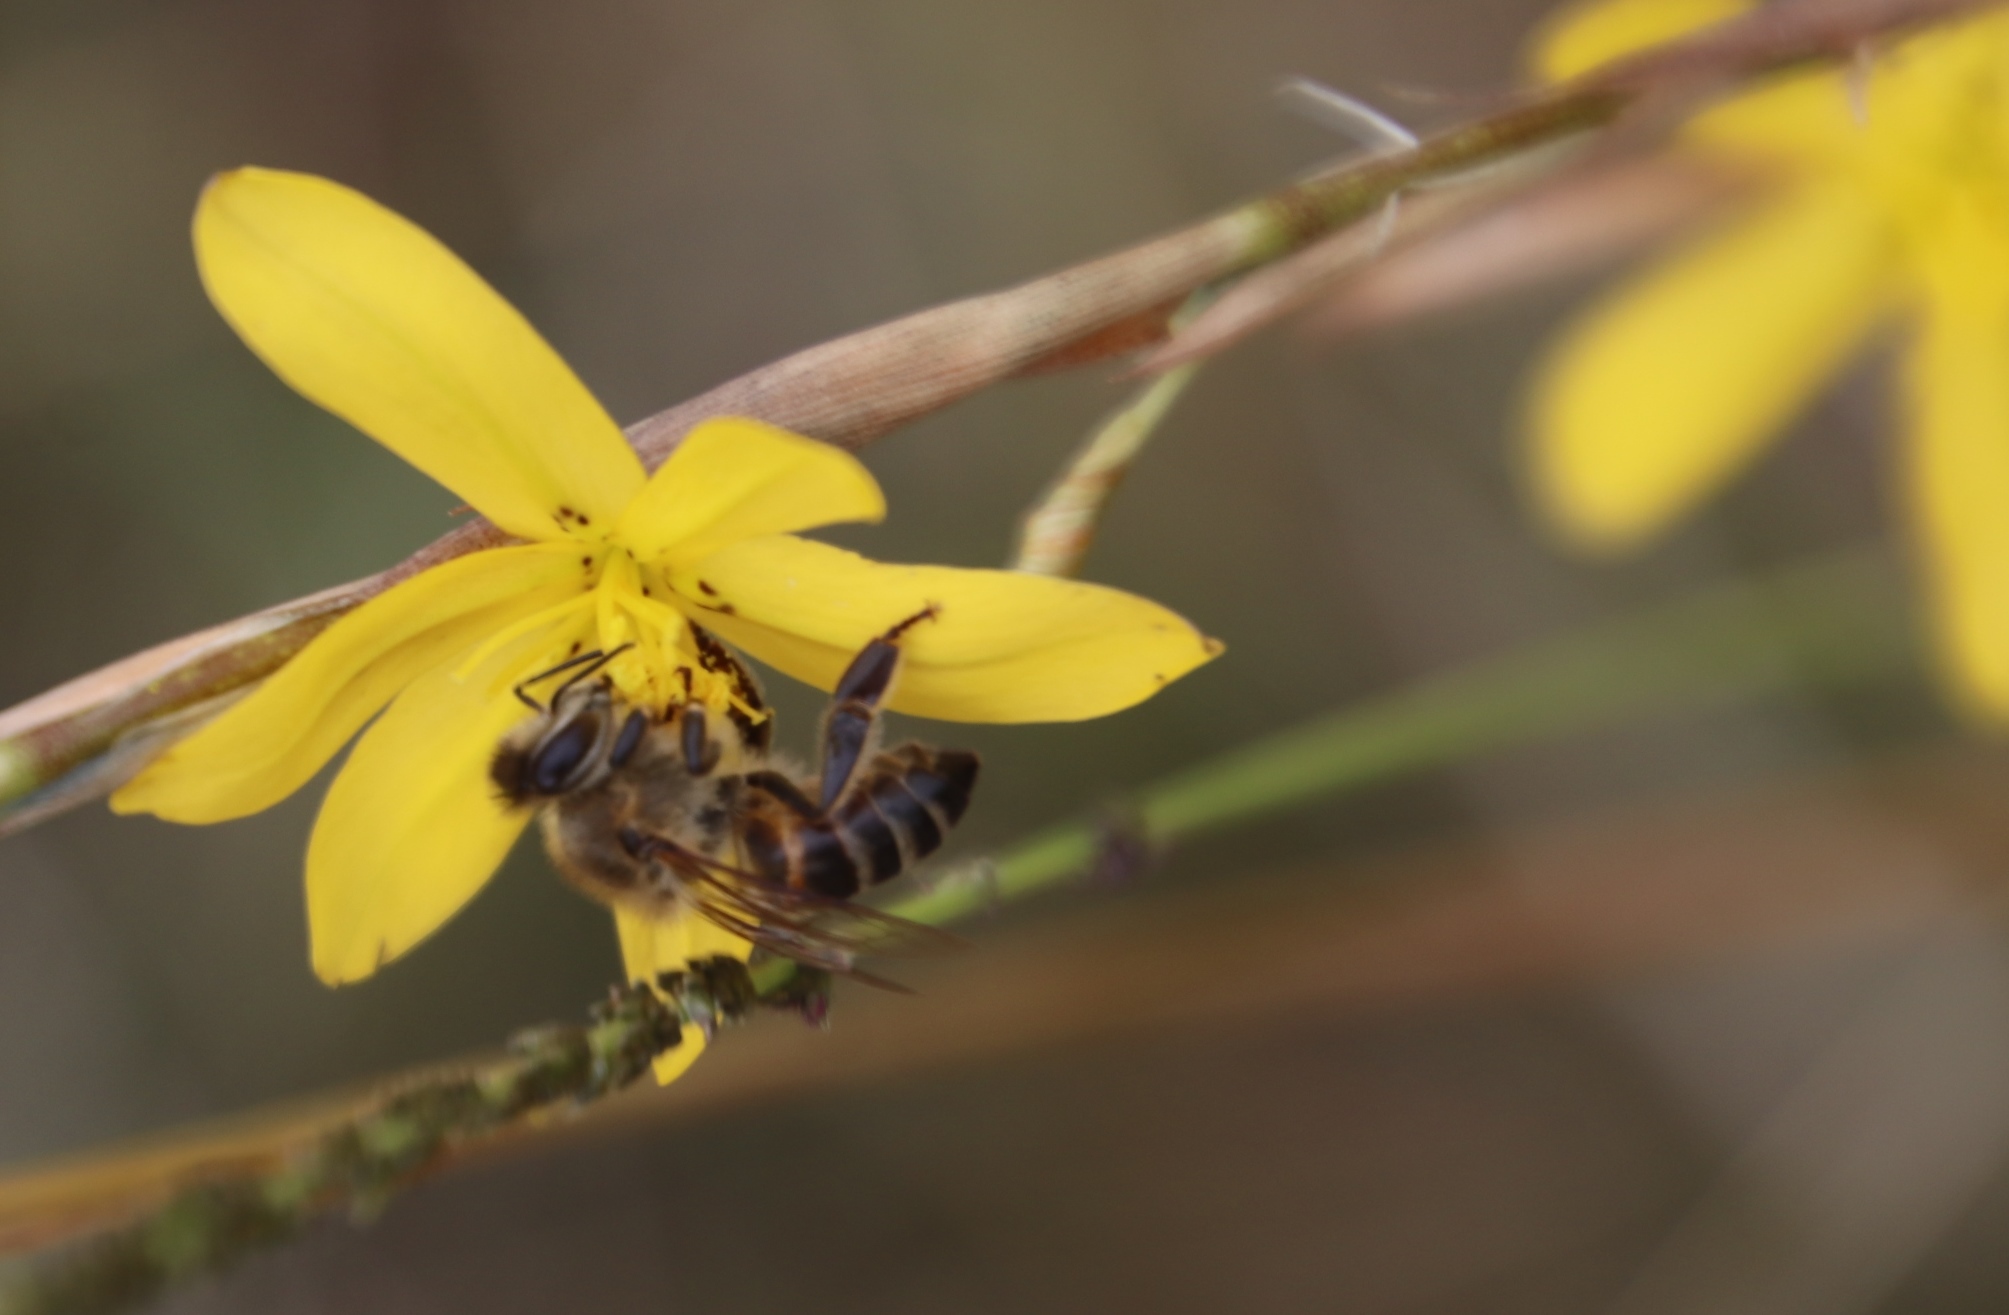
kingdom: Animalia
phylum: Arthropoda
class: Insecta
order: Hymenoptera
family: Apidae
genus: Apis
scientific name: Apis mellifera
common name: Honey bee
